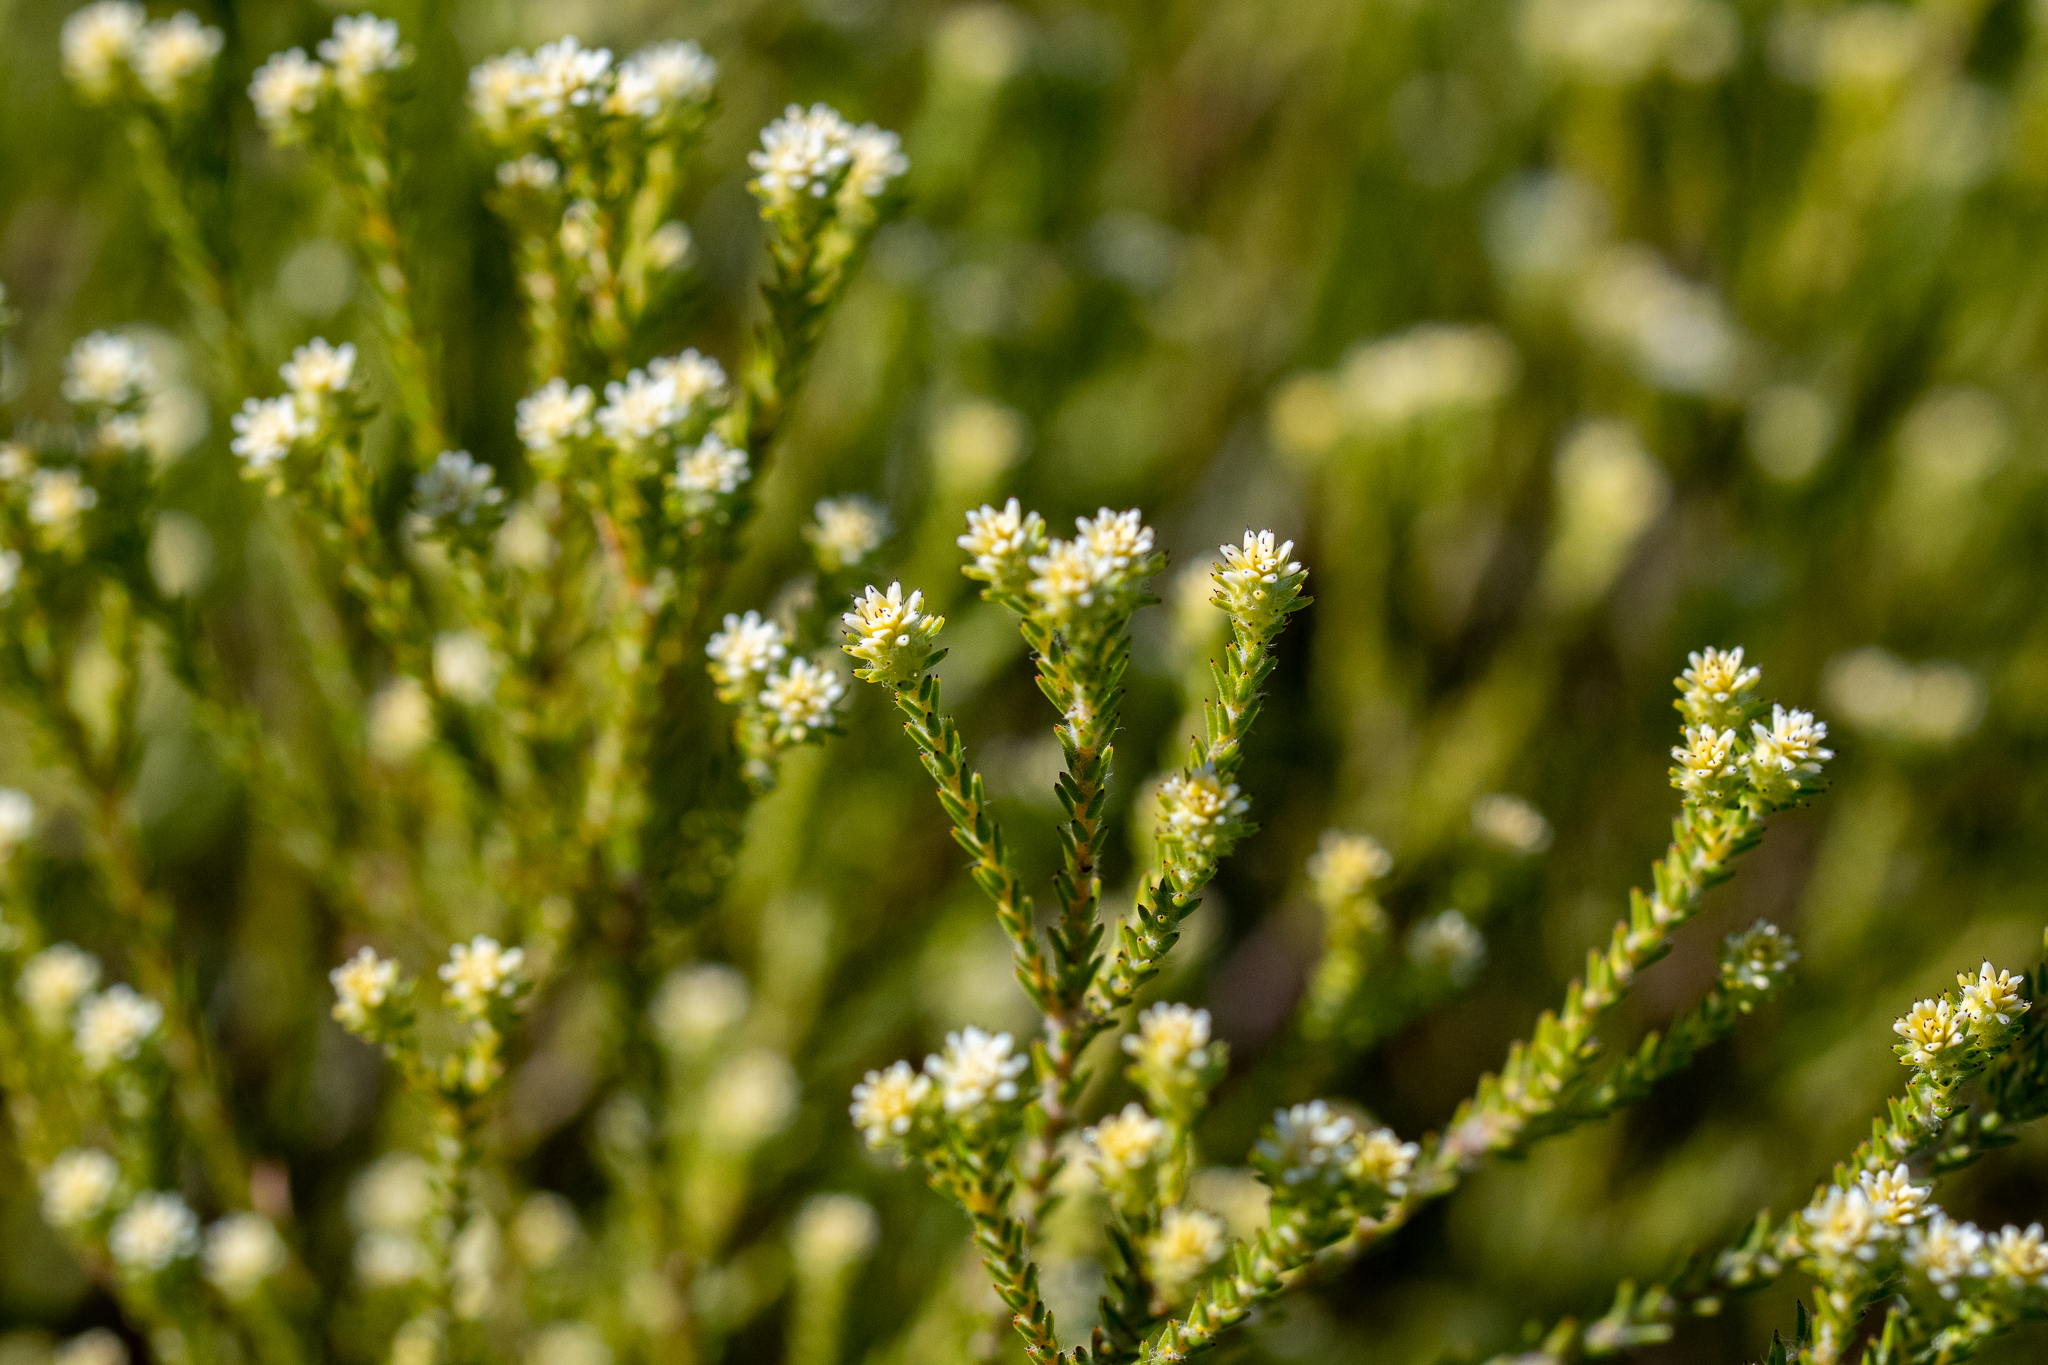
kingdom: Plantae
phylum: Tracheophyta
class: Magnoliopsida
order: Bruniales
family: Bruniaceae
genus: Staavia
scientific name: Staavia radiata
